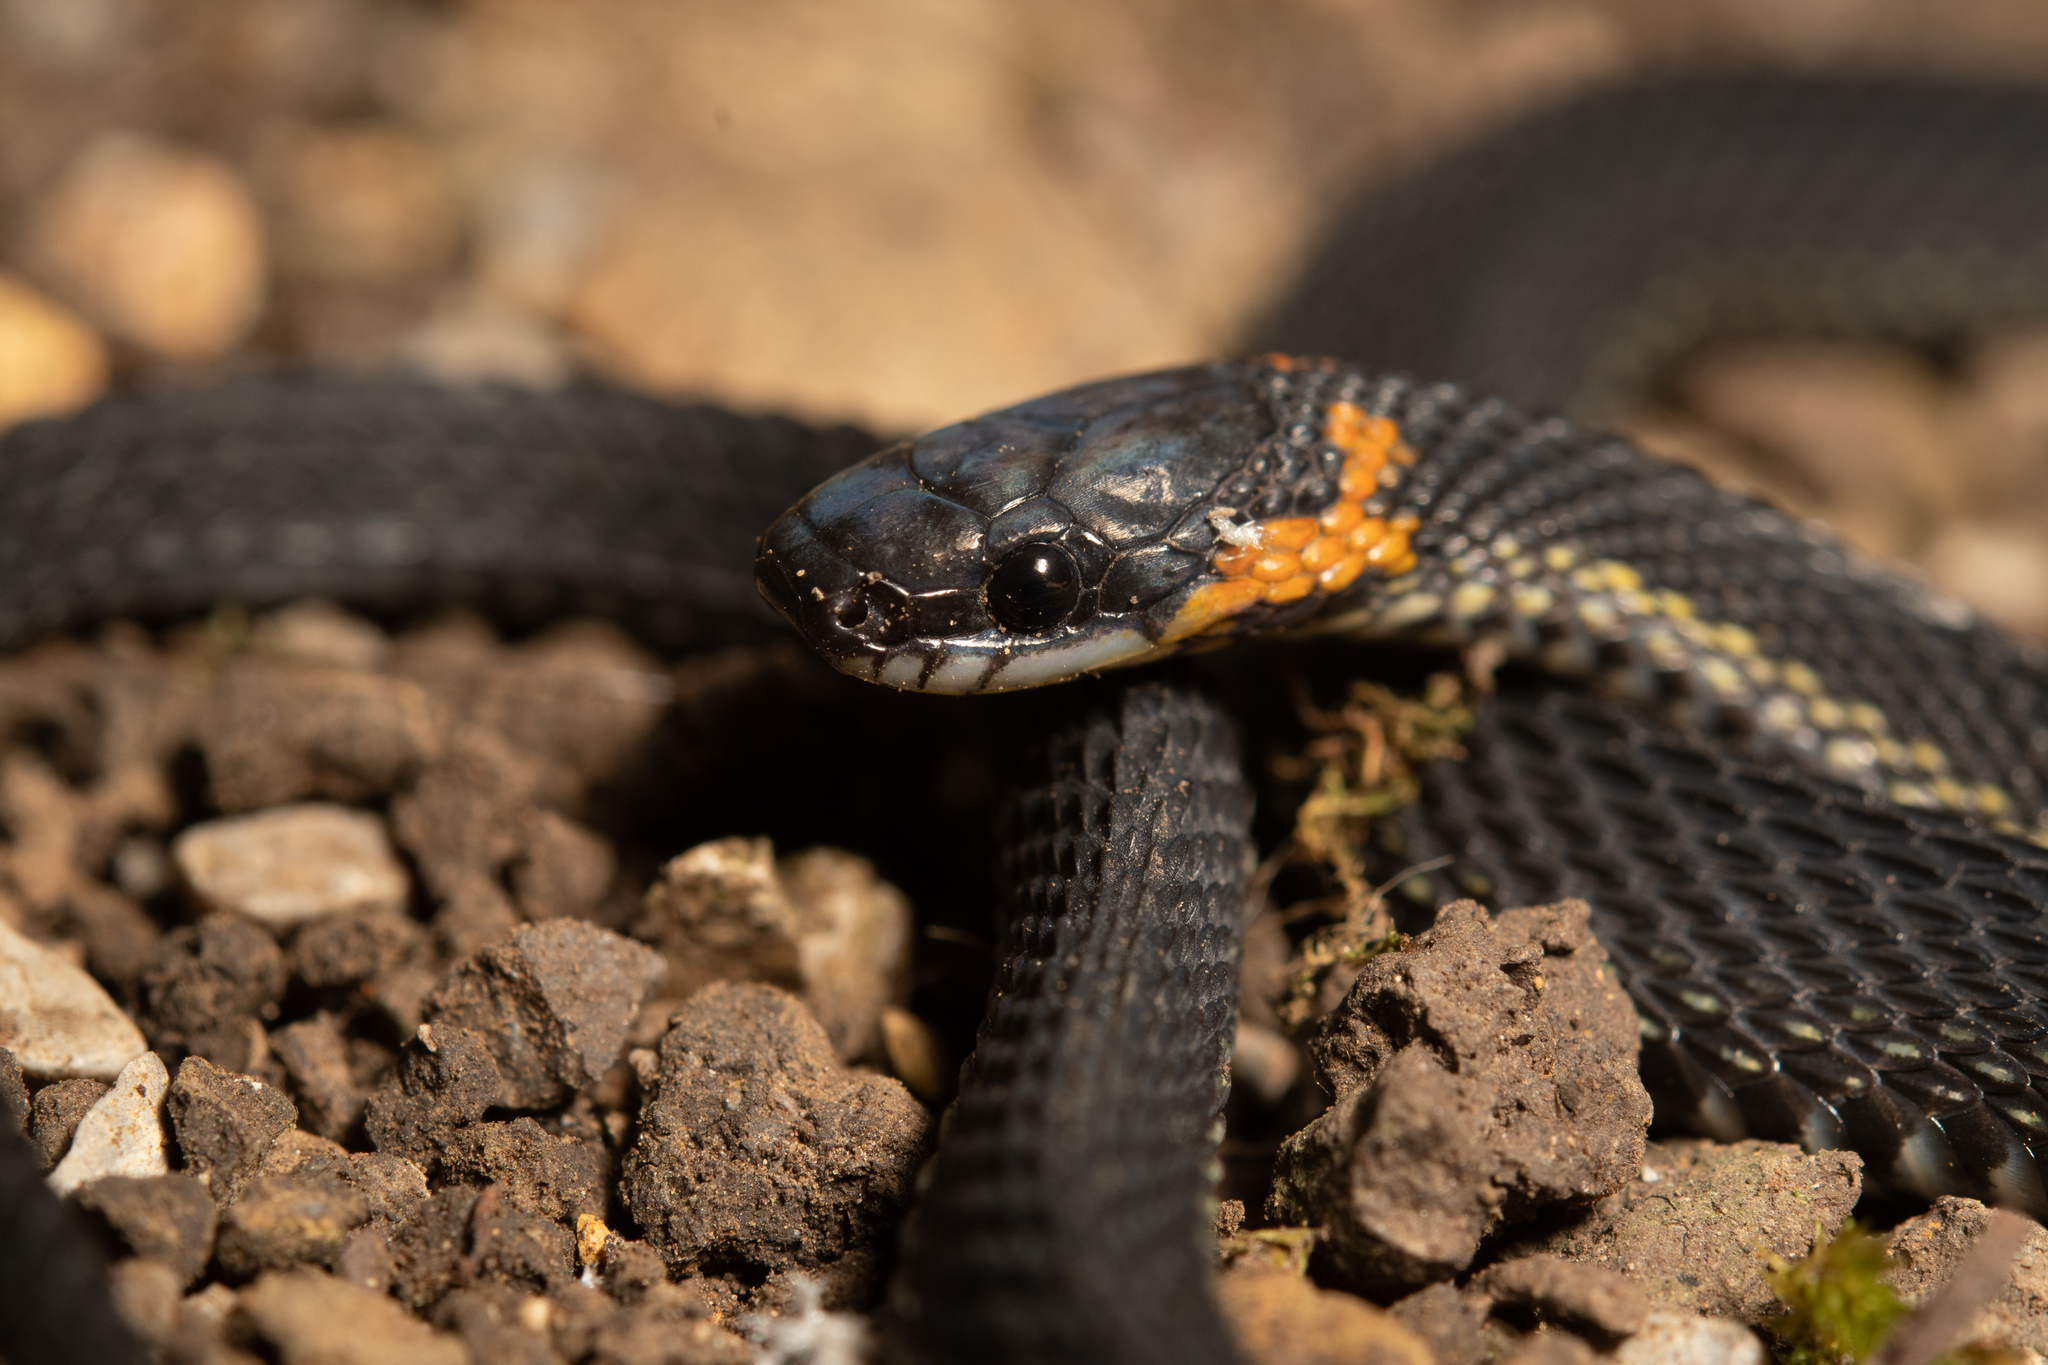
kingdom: Animalia
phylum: Chordata
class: Squamata
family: Colubridae
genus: Ninia
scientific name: Ninia diademata
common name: Ringneck coffee snake
